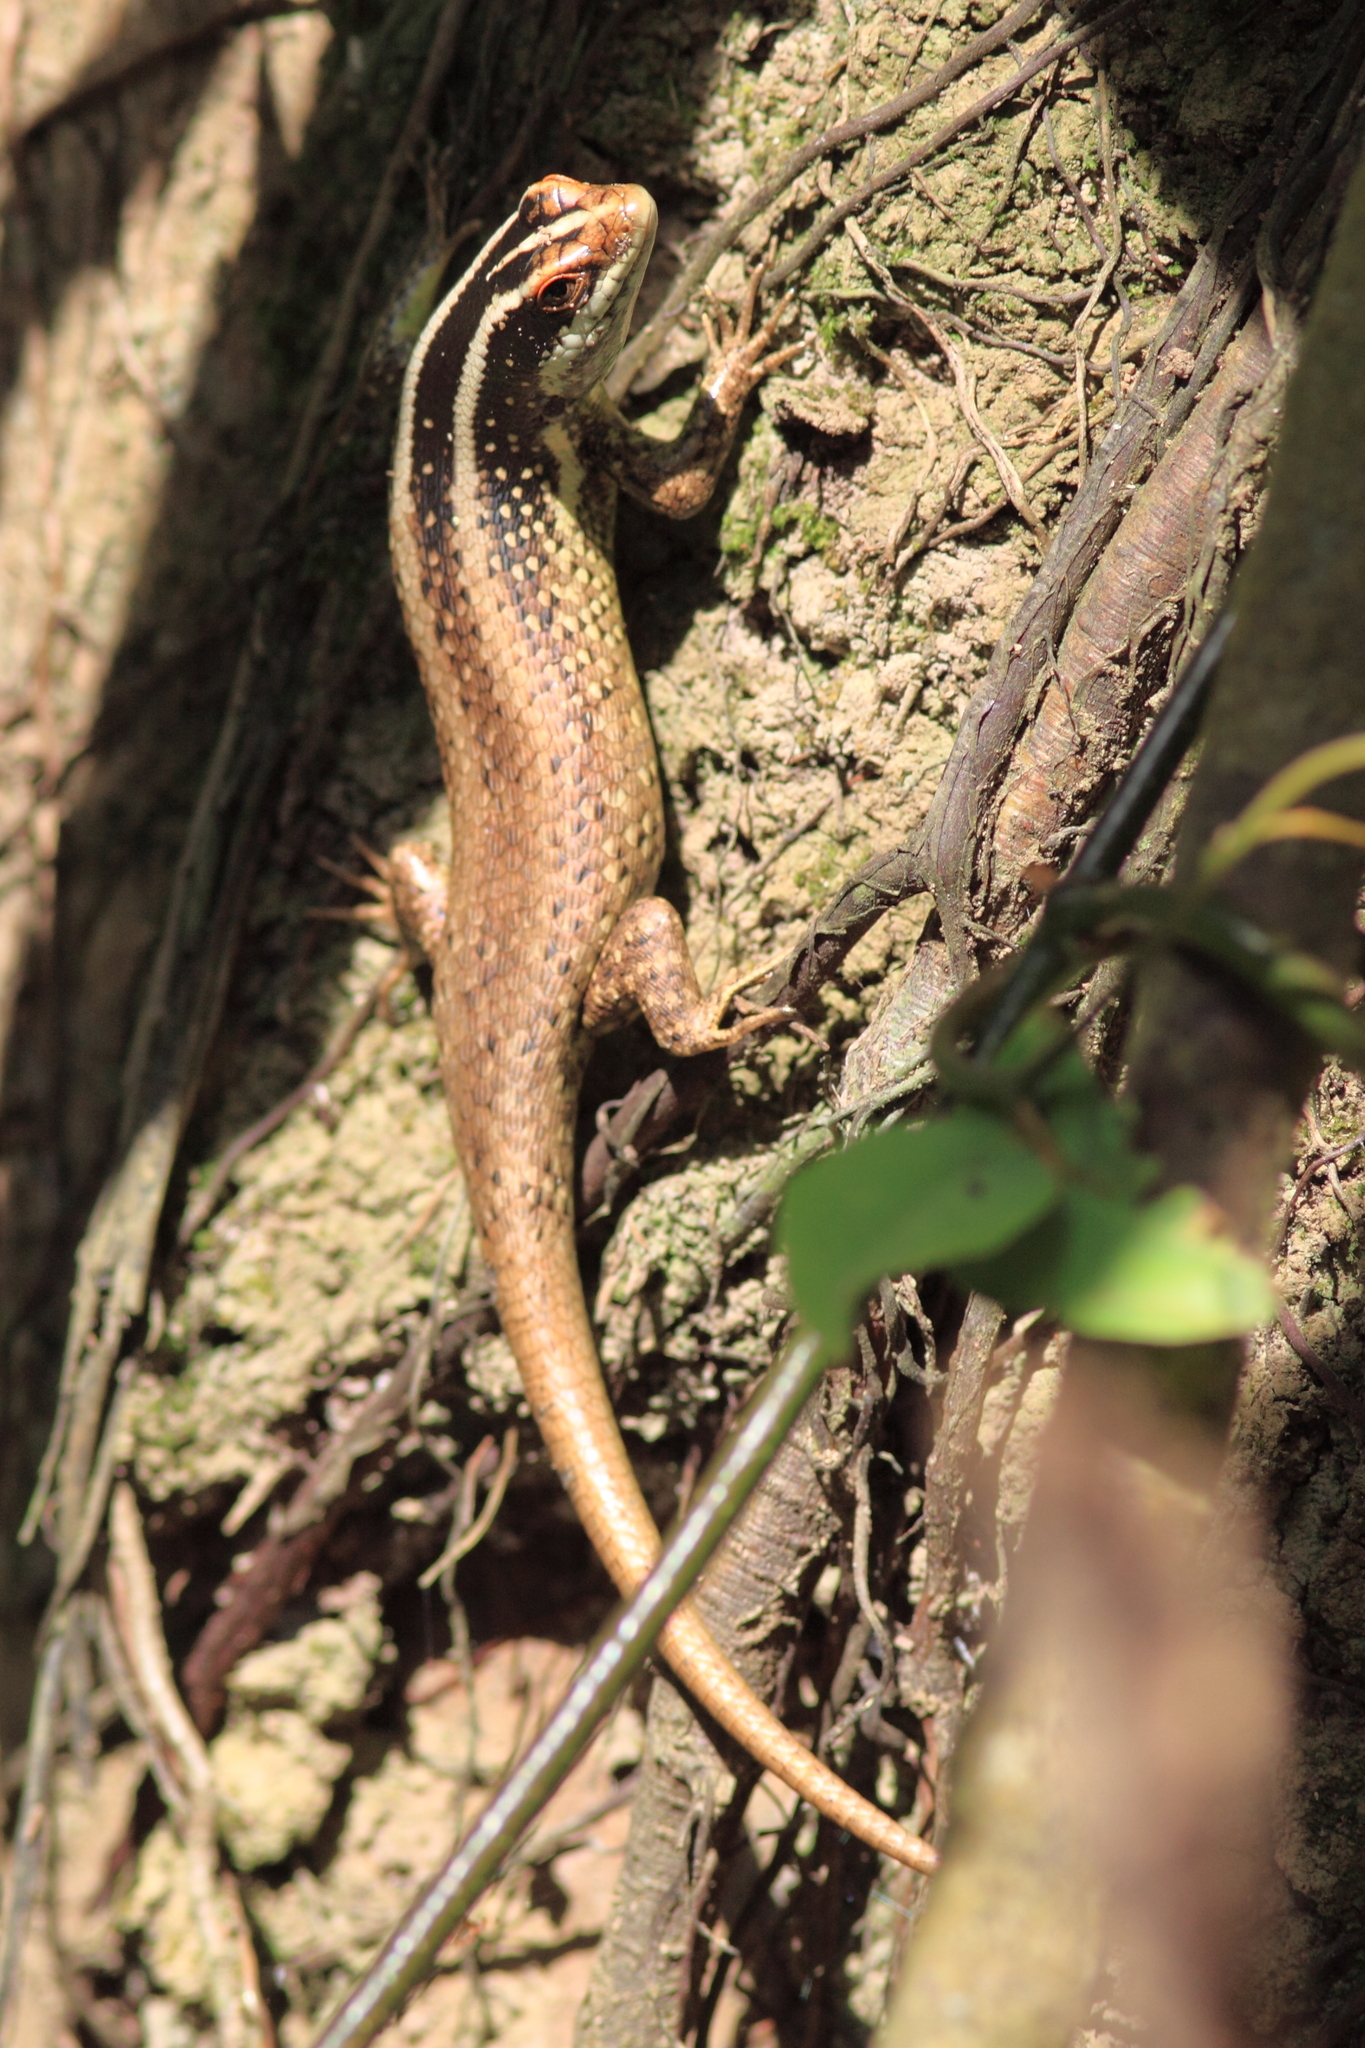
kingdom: Animalia
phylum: Chordata
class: Squamata
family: Scincidae
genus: Dasia
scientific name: Dasia vittata
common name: Borneo skink
